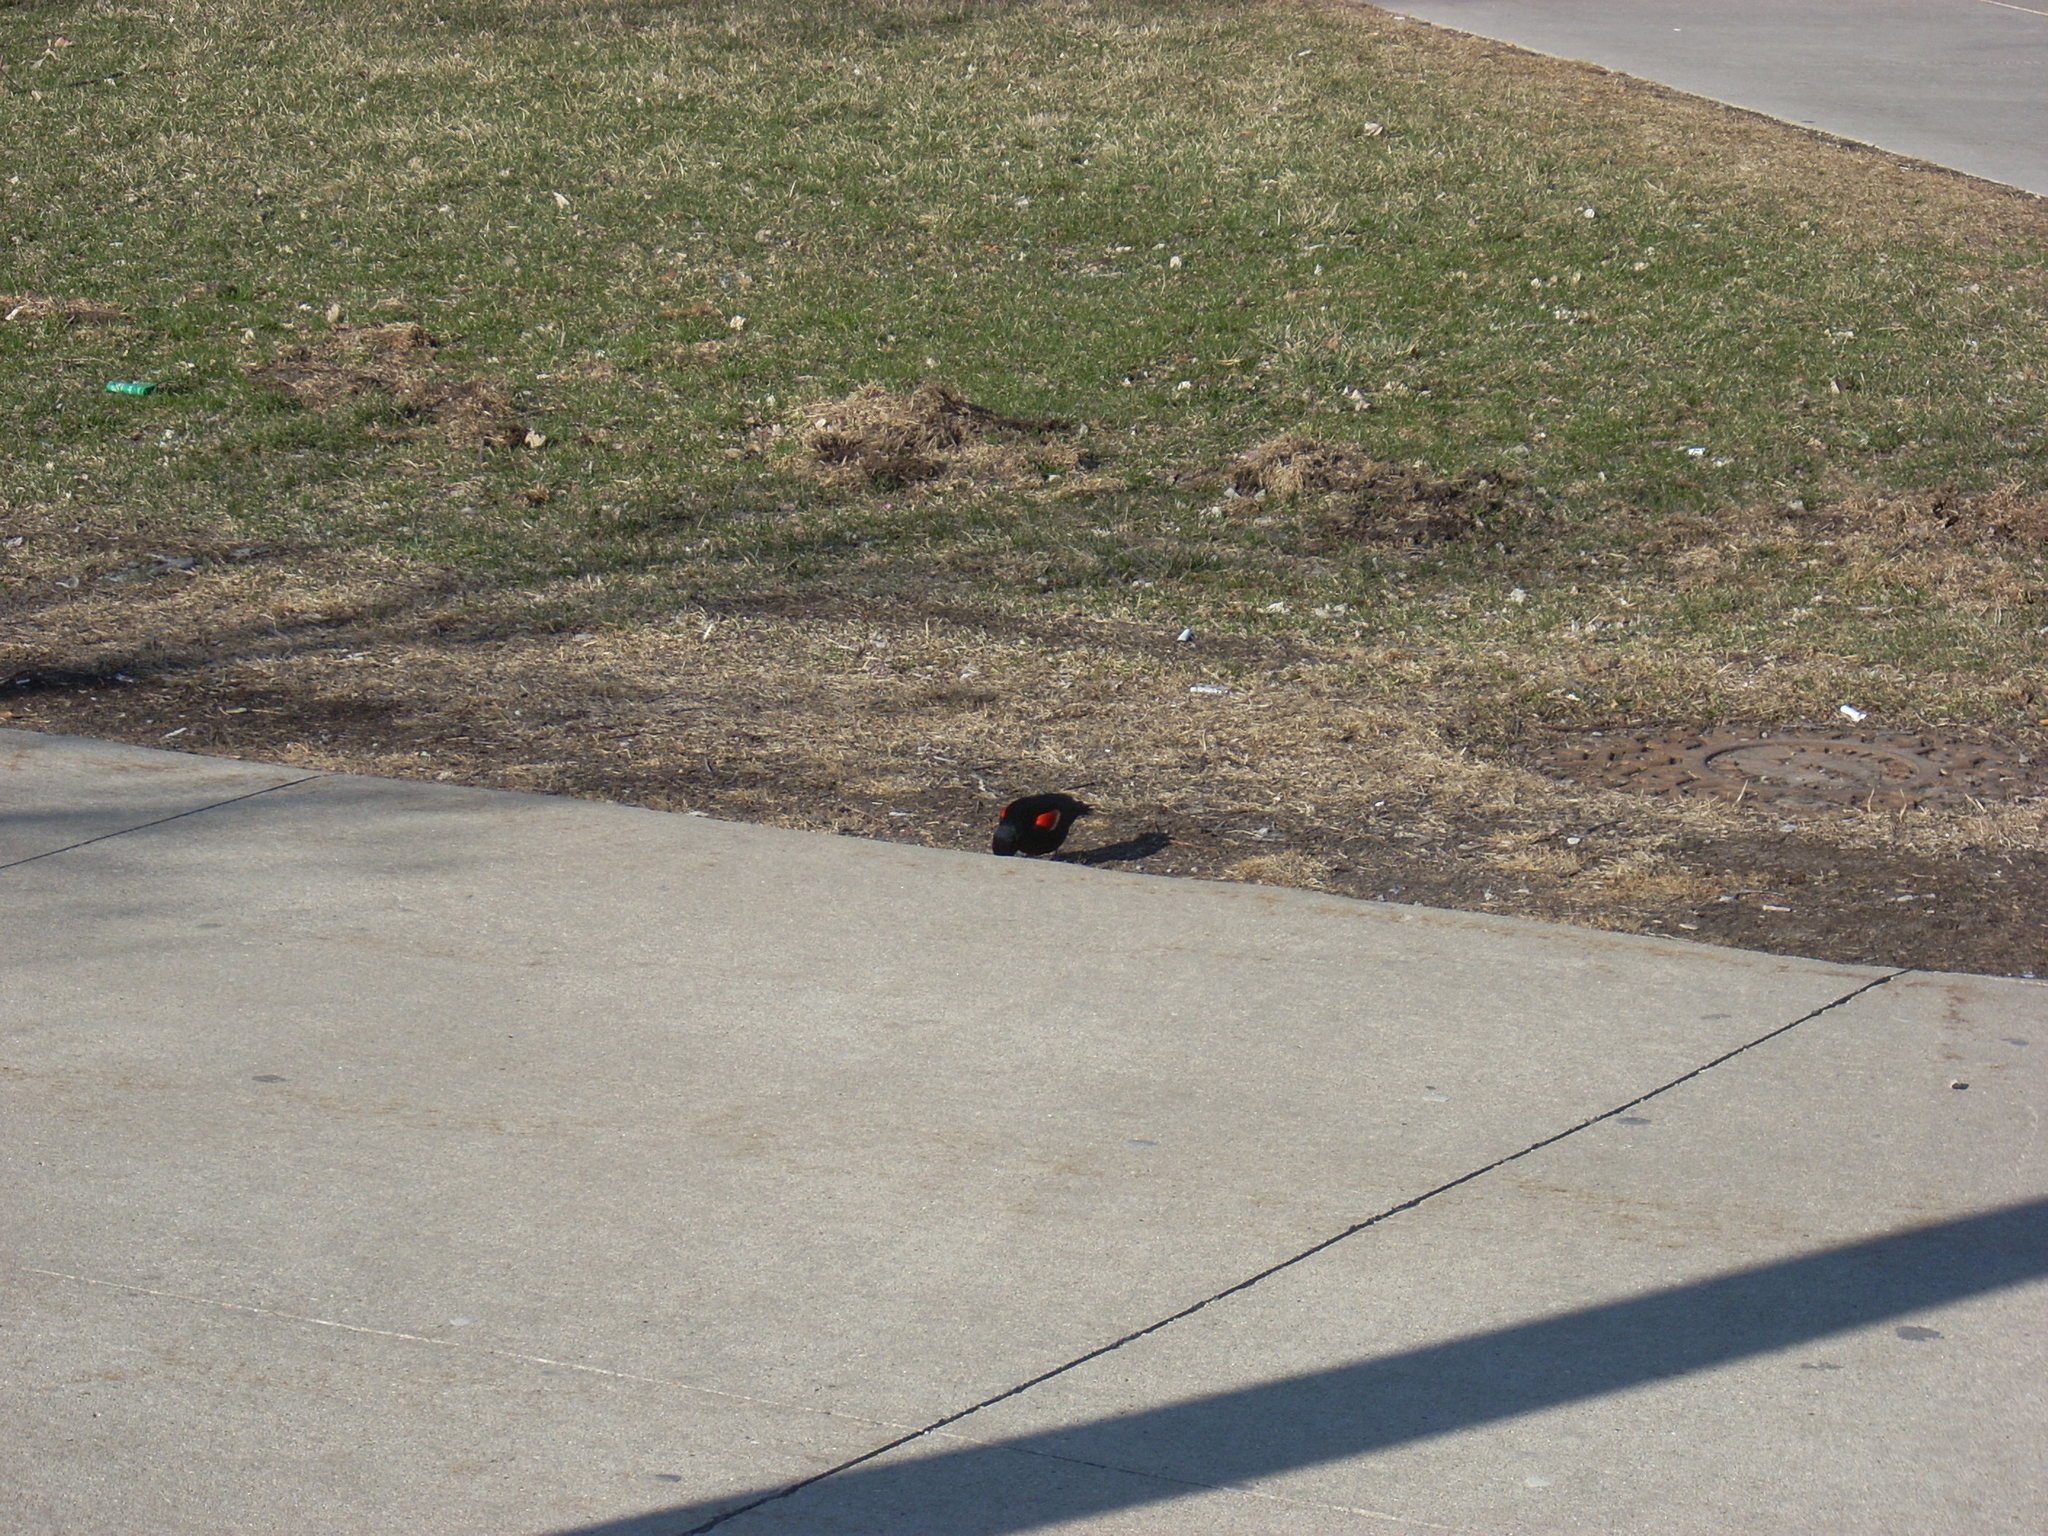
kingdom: Animalia
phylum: Chordata
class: Aves
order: Passeriformes
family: Icteridae
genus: Agelaius
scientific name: Agelaius phoeniceus
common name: Red-winged blackbird
